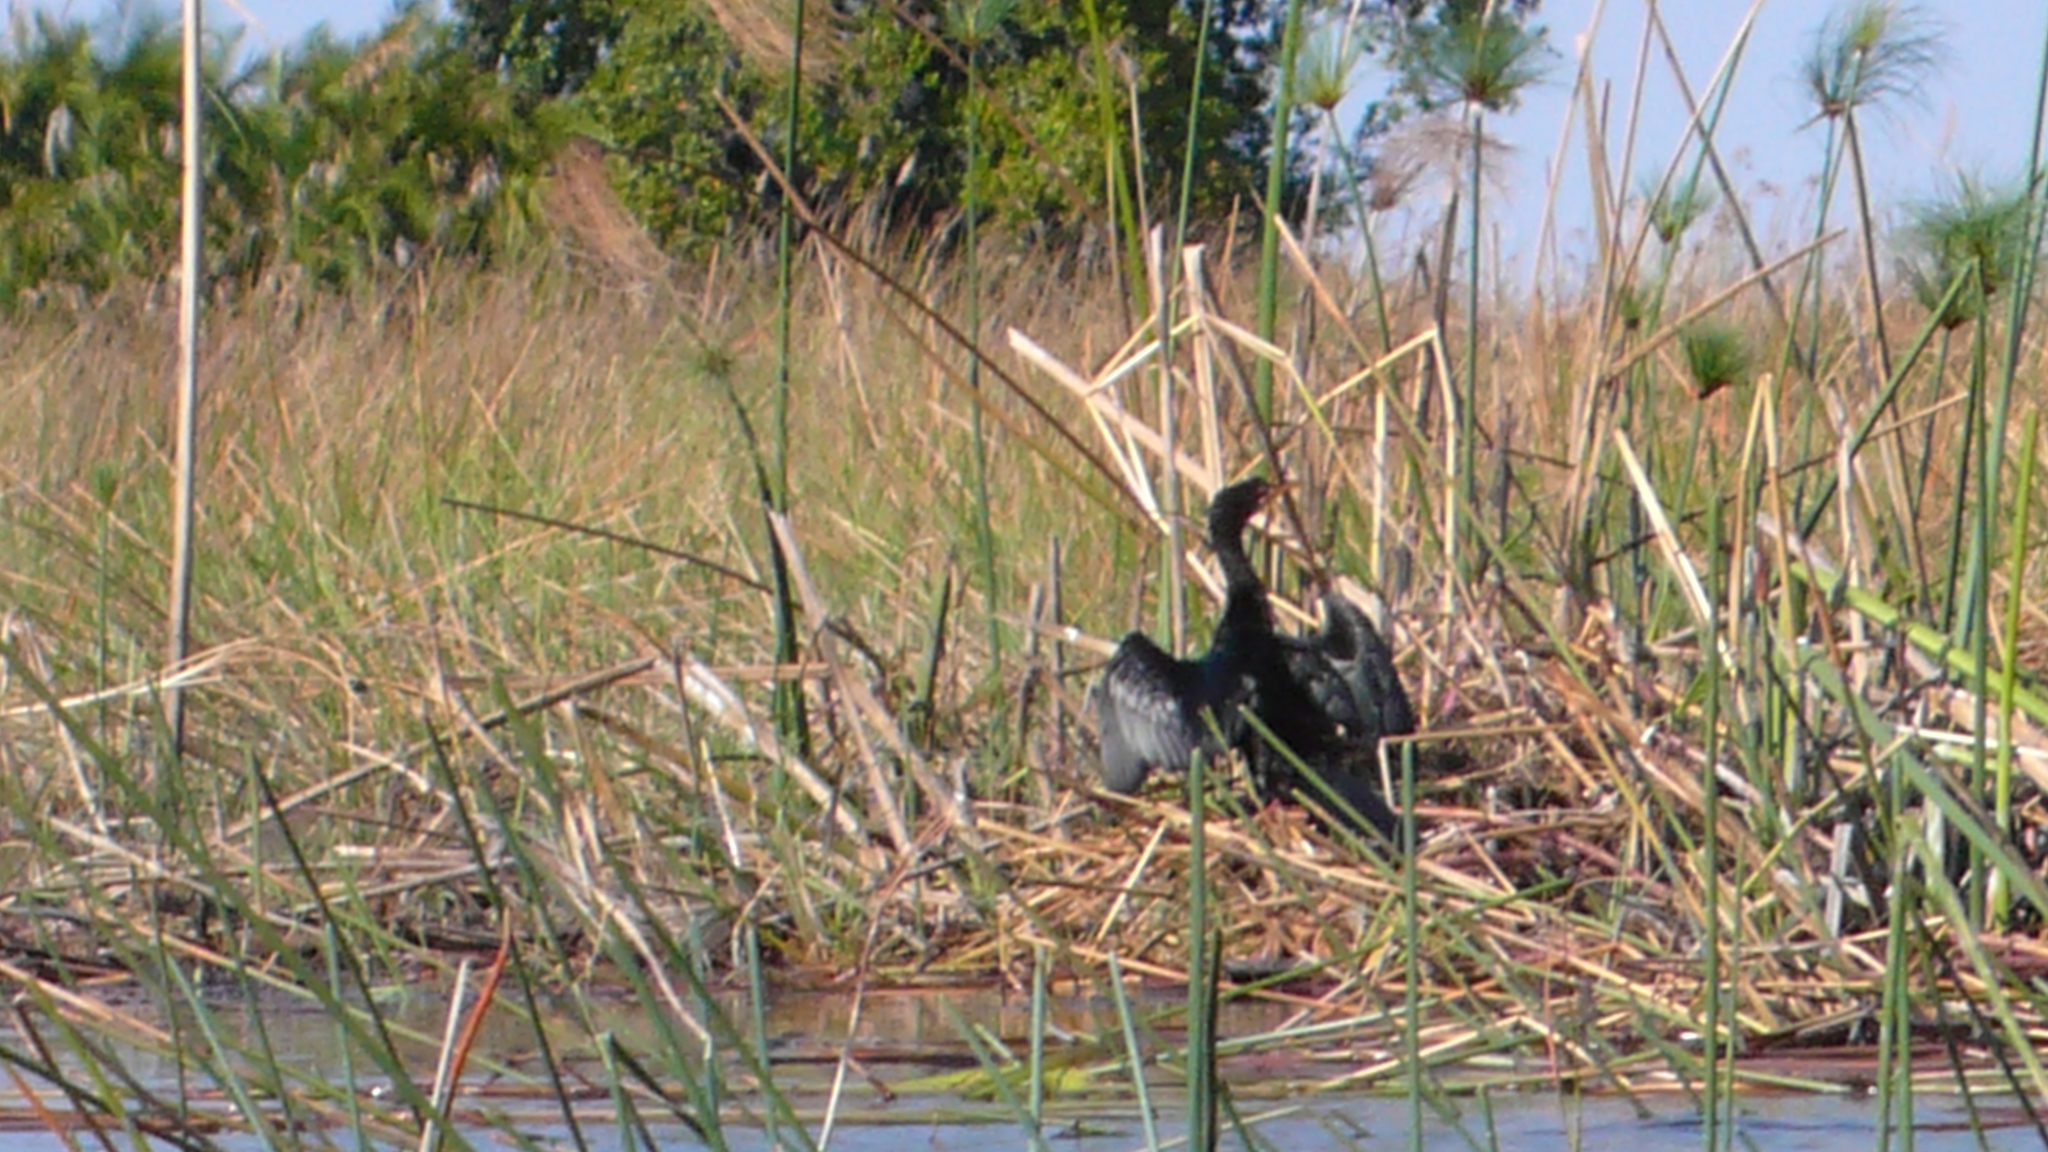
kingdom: Animalia
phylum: Chordata
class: Aves
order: Suliformes
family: Phalacrocoracidae
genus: Microcarbo
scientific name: Microcarbo africanus
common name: Long-tailed cormorant
